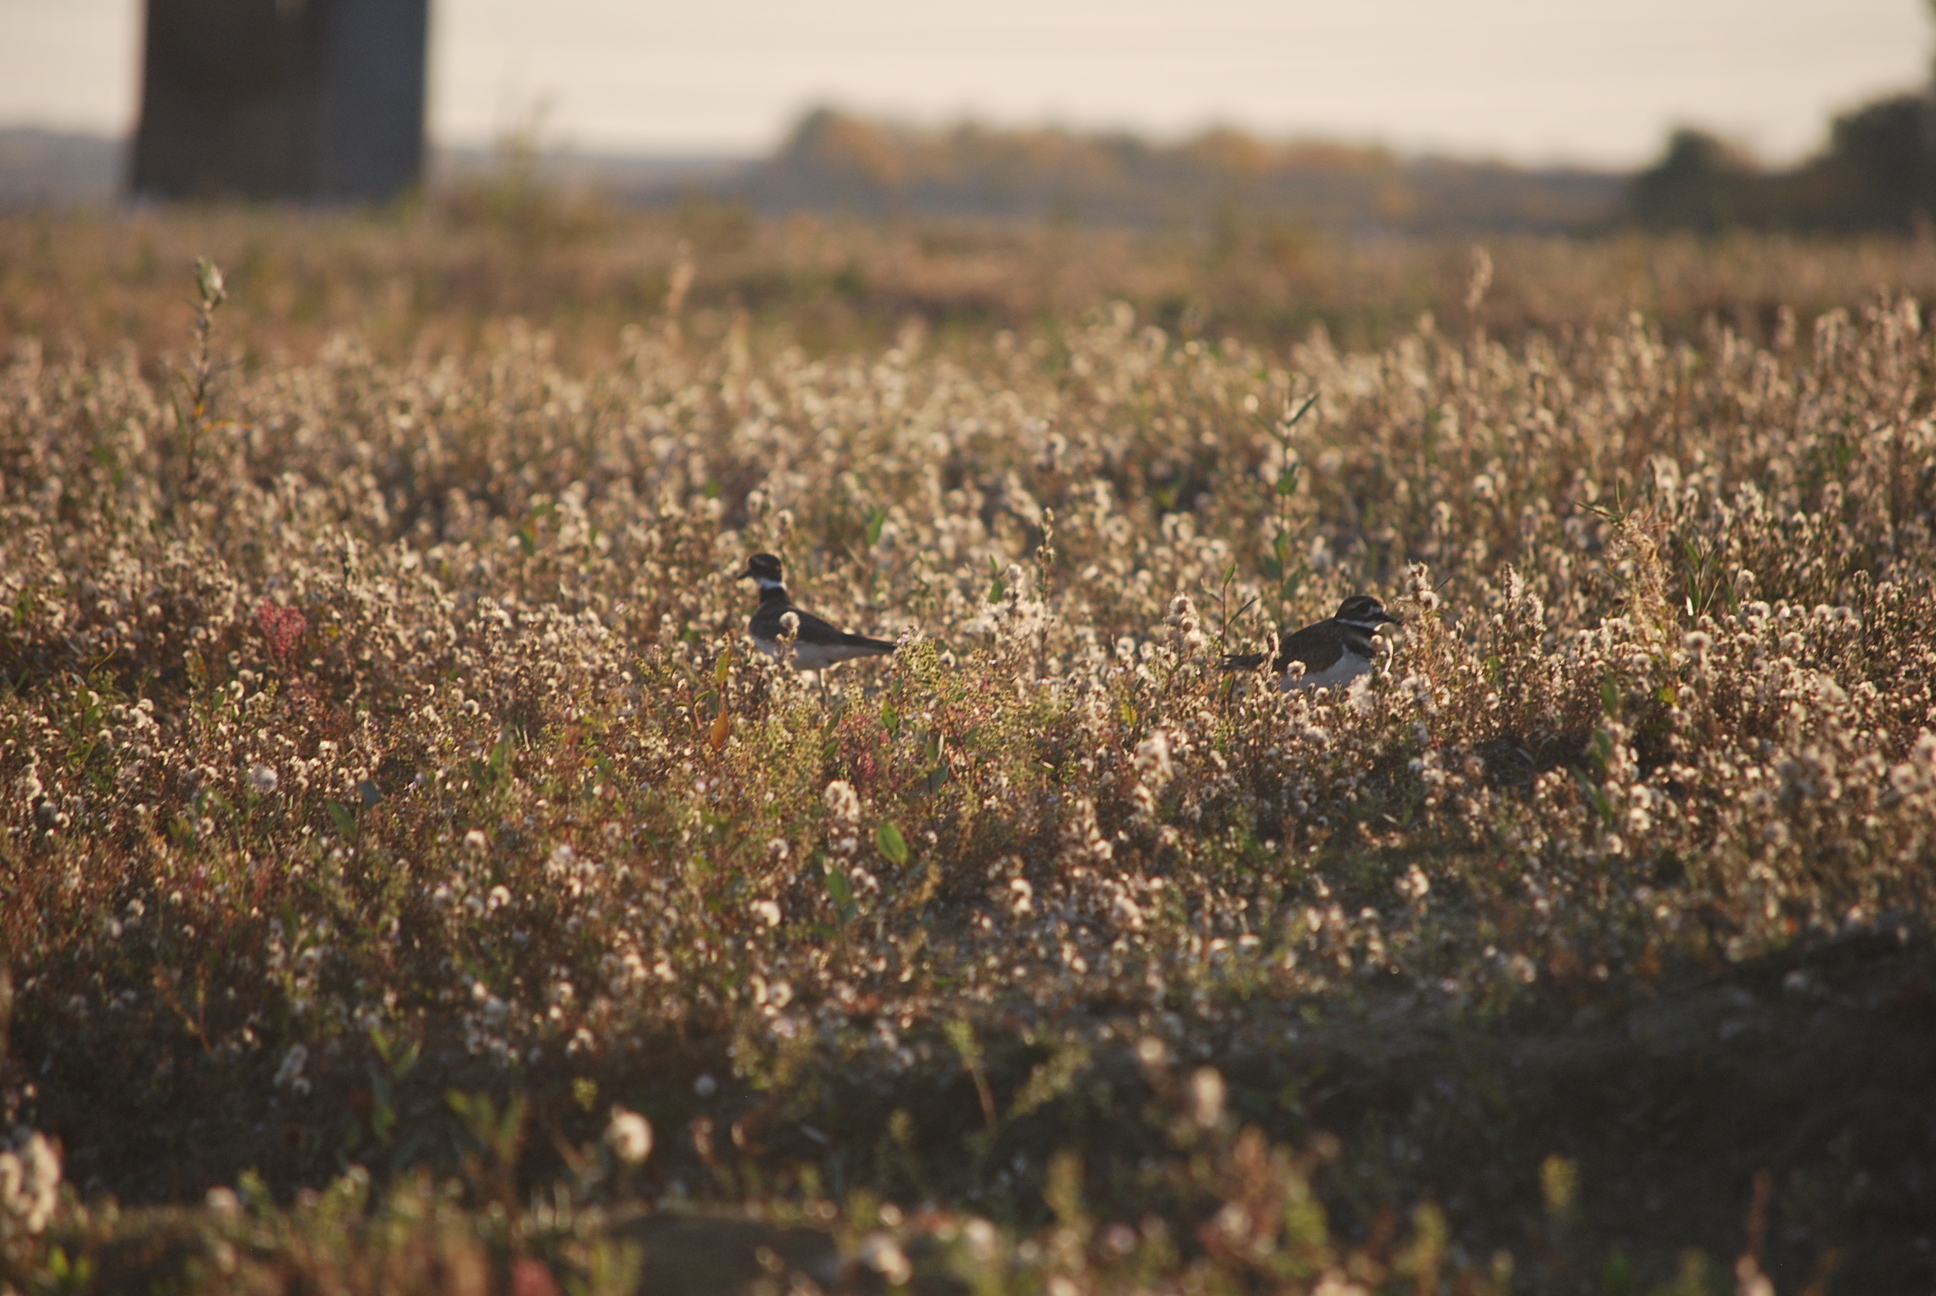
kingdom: Animalia
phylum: Chordata
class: Aves
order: Charadriiformes
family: Charadriidae
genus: Charadrius
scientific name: Charadrius vociferus
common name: Killdeer
